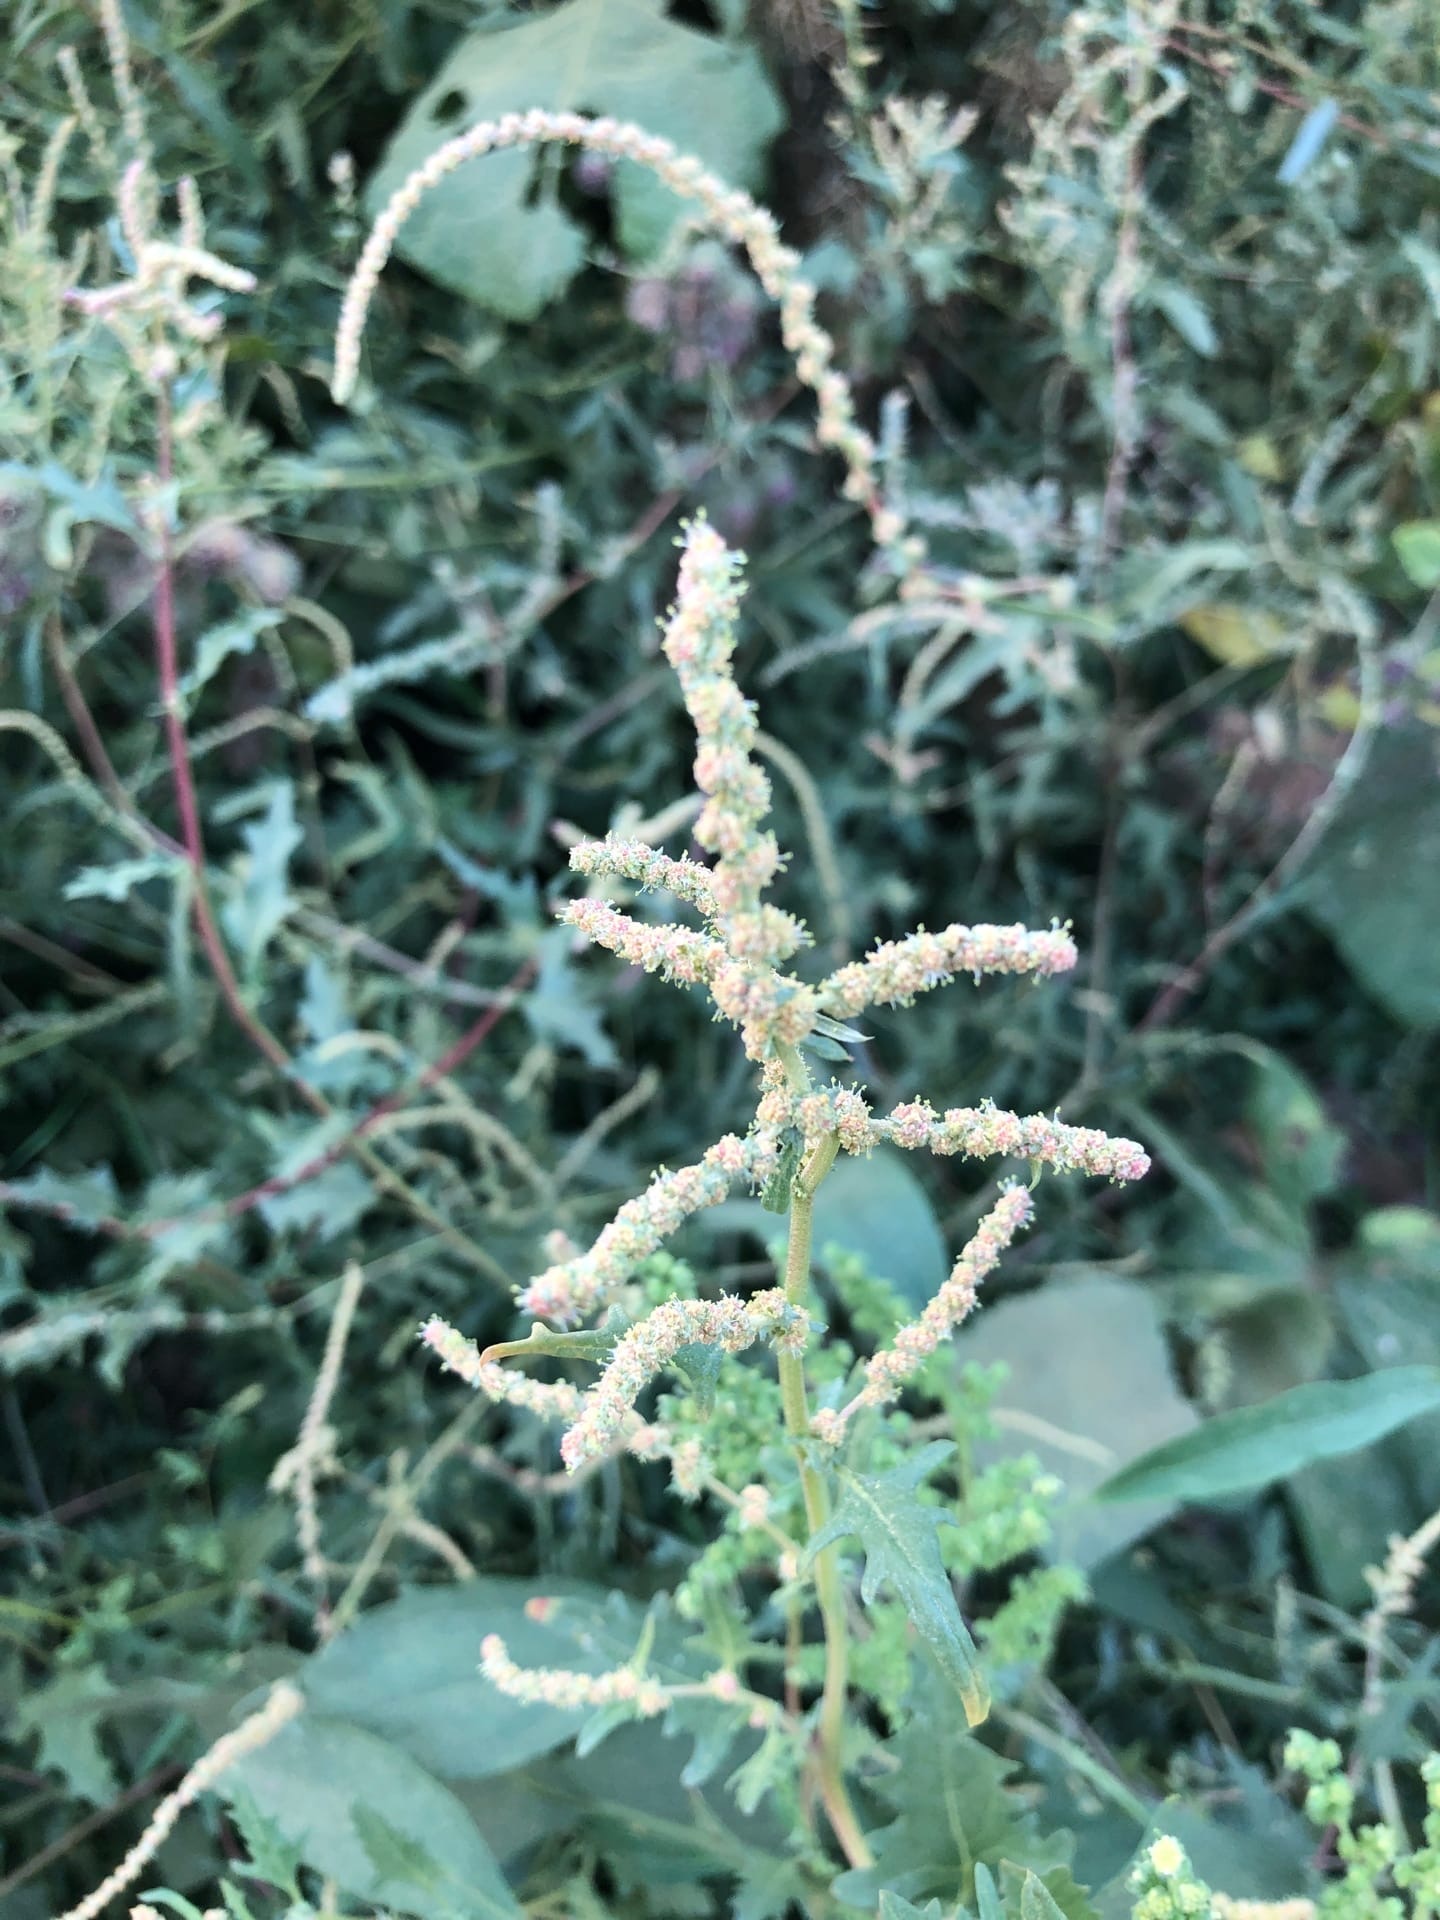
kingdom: Plantae
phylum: Tracheophyta
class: Magnoliopsida
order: Caryophyllales
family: Amaranthaceae
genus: Atriplex
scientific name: Atriplex tatarica
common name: Tatarian orache
